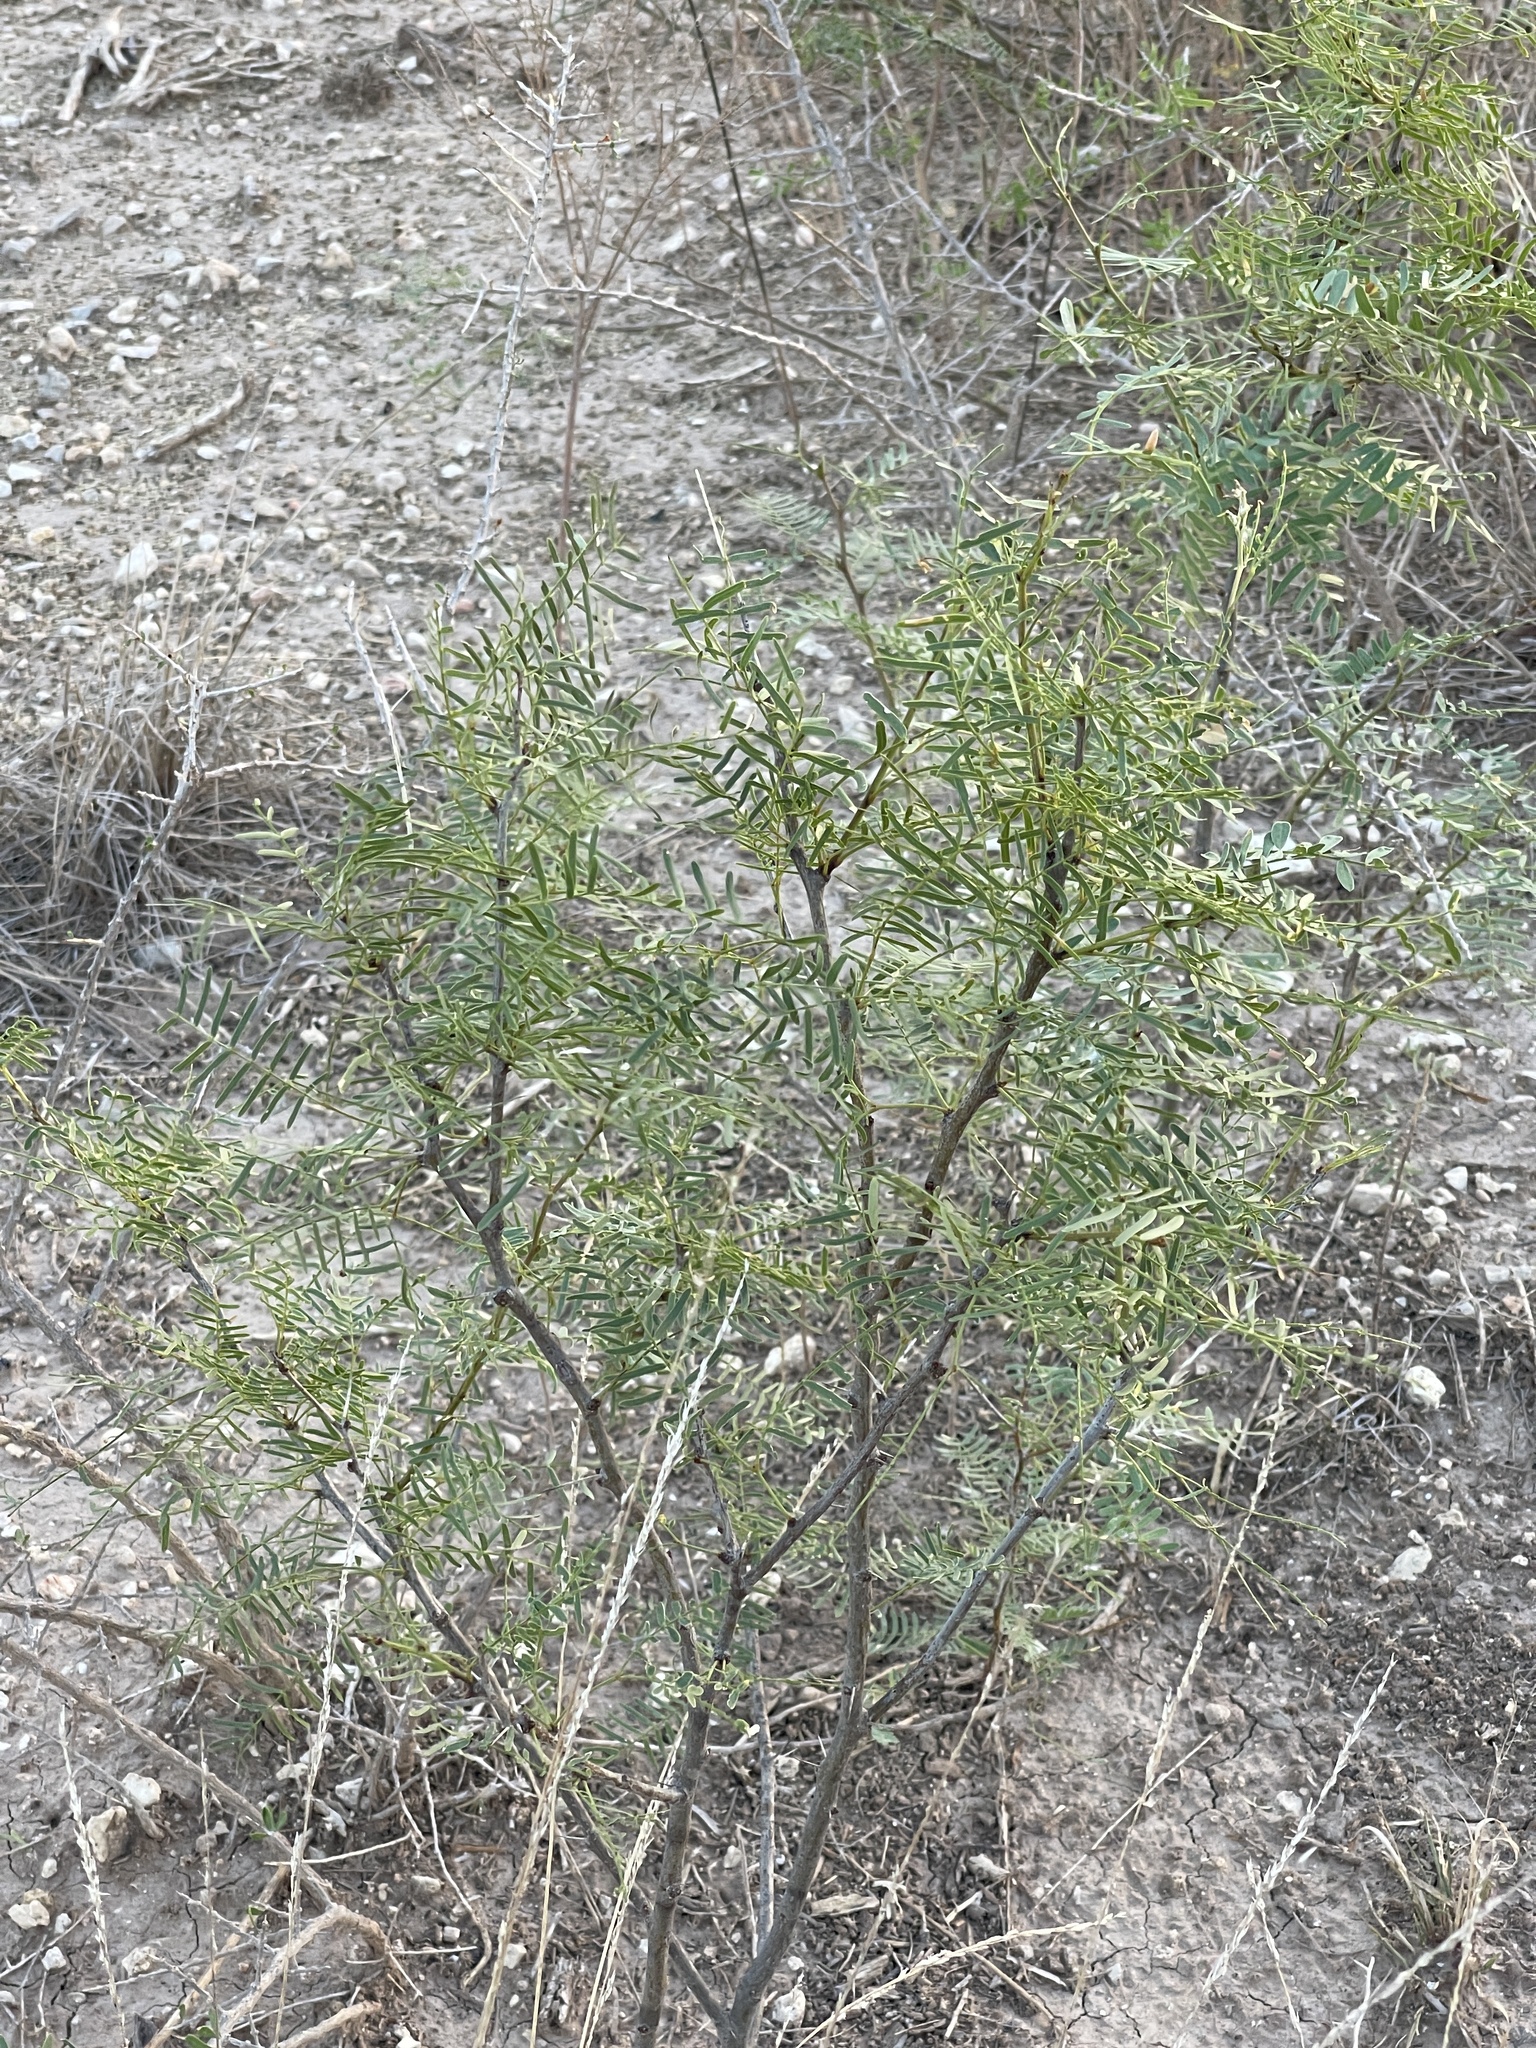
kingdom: Plantae
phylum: Tracheophyta
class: Magnoliopsida
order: Fabales
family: Fabaceae
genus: Prosopis
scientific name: Prosopis glandulosa
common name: Honey mesquite
